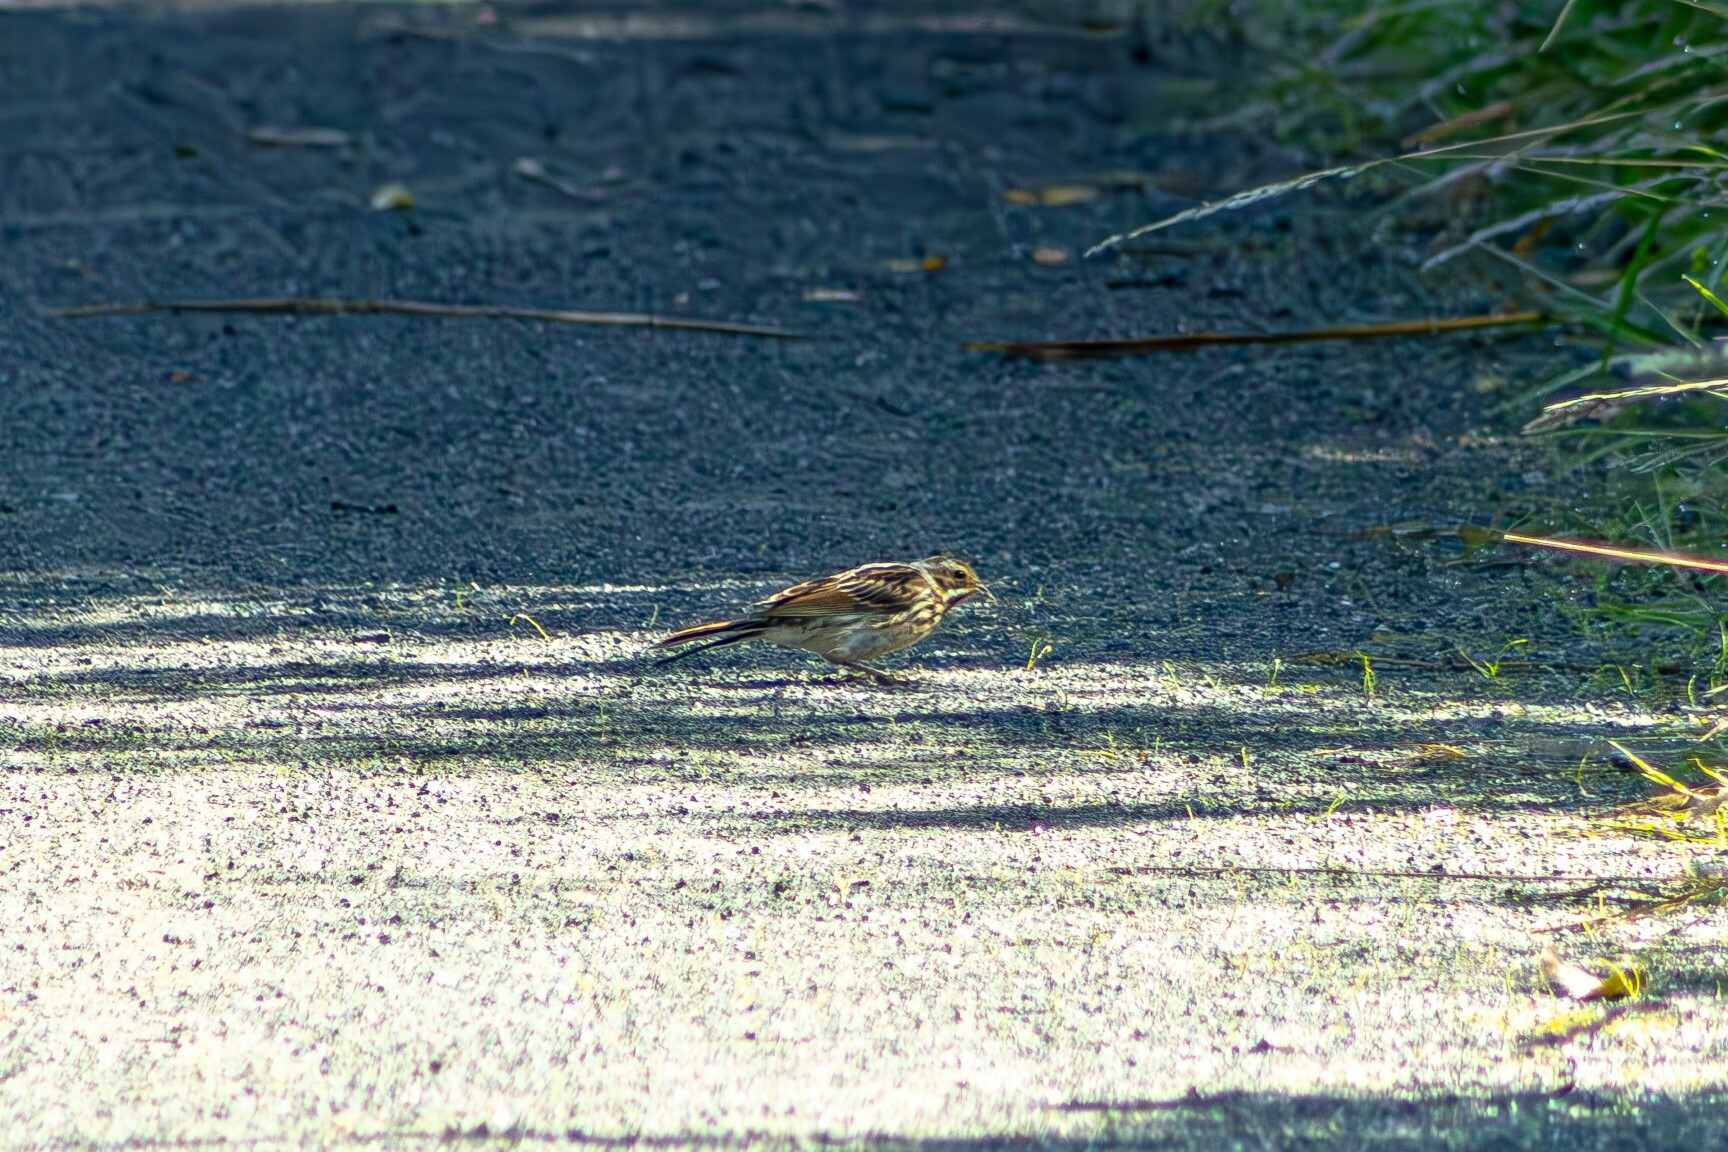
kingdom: Animalia
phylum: Chordata
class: Aves
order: Passeriformes
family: Emberizidae
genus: Emberiza
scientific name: Emberiza schoeniclus
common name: Reed bunting
